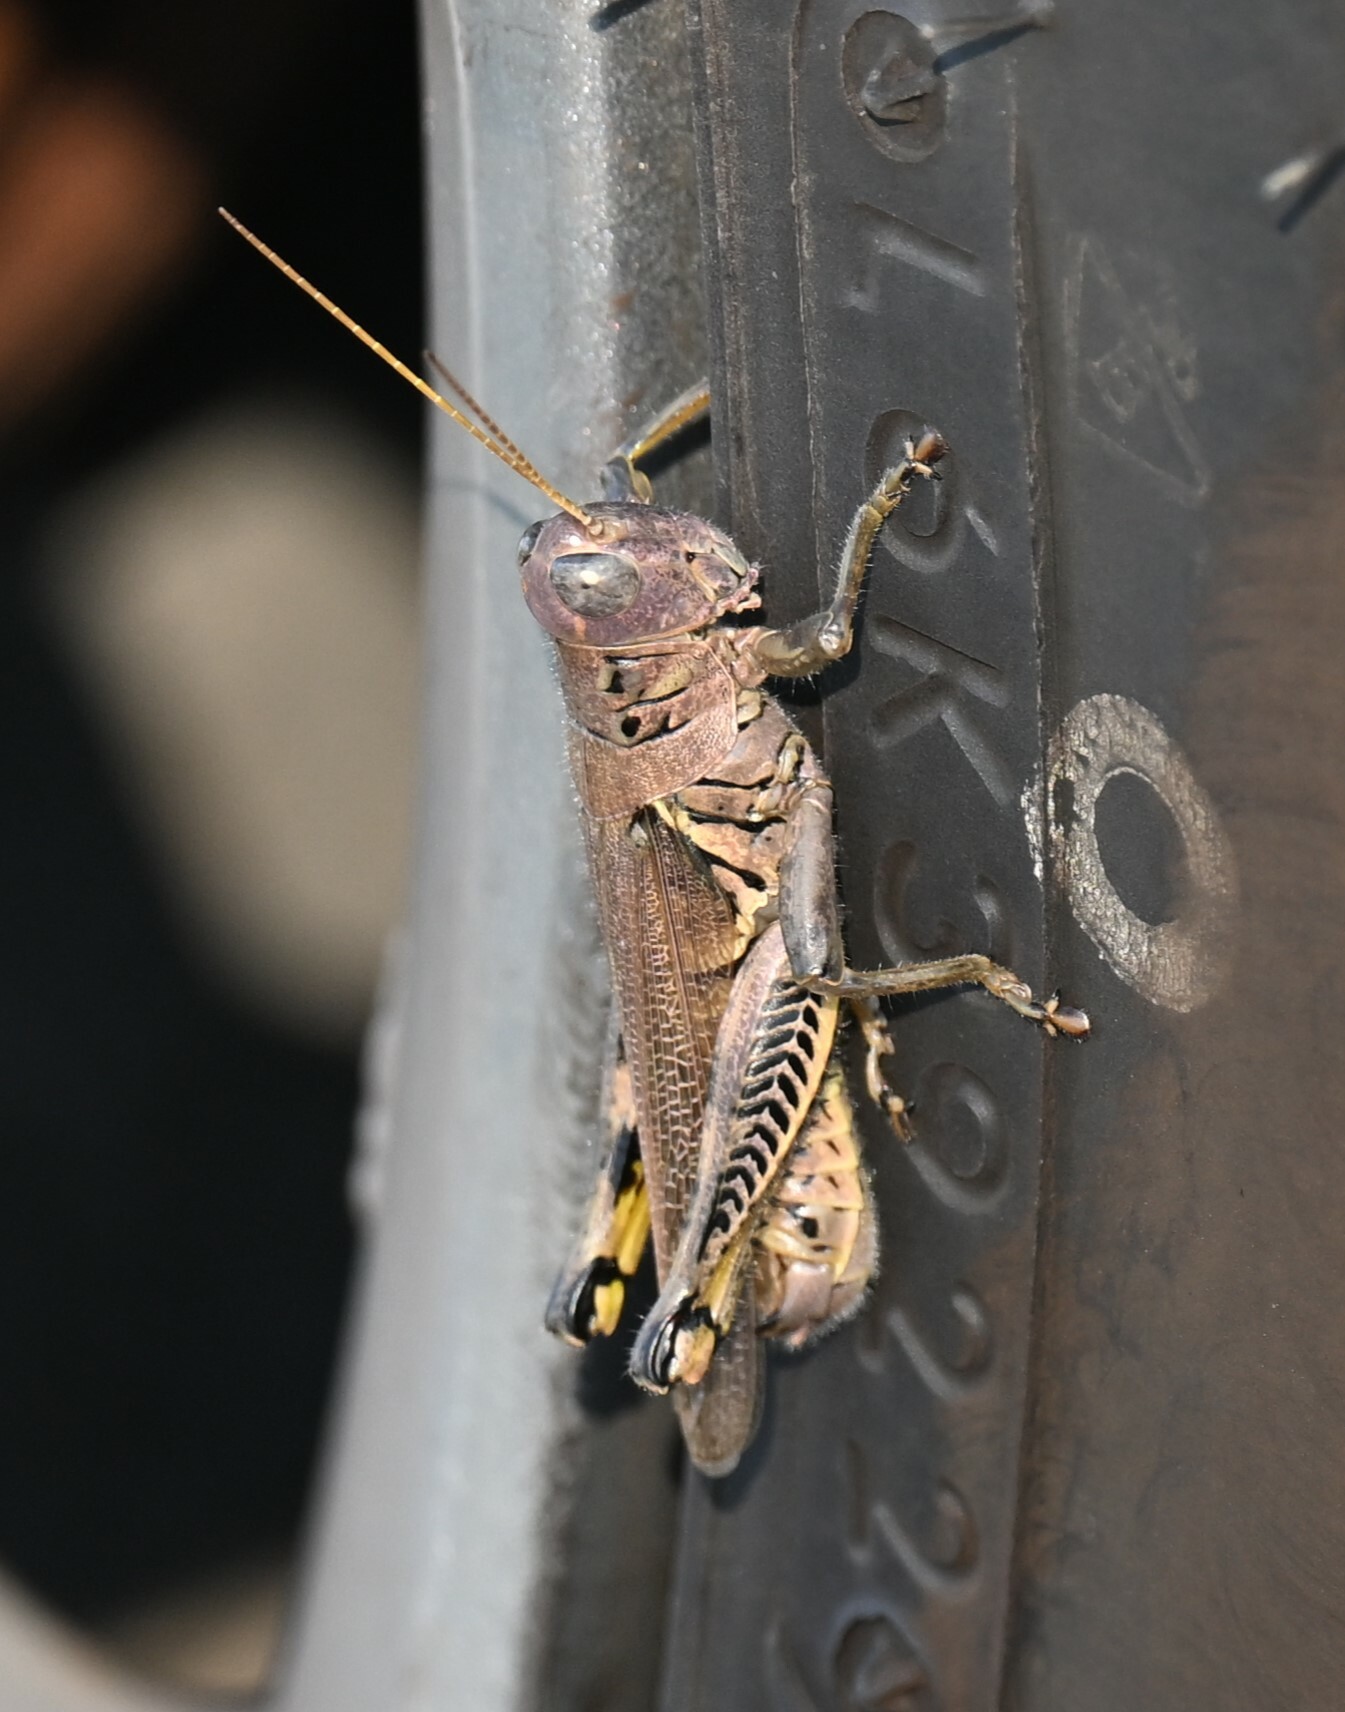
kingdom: Animalia
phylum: Arthropoda
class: Insecta
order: Orthoptera
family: Acrididae
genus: Melanoplus
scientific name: Melanoplus differentialis
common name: Differential grasshopper
